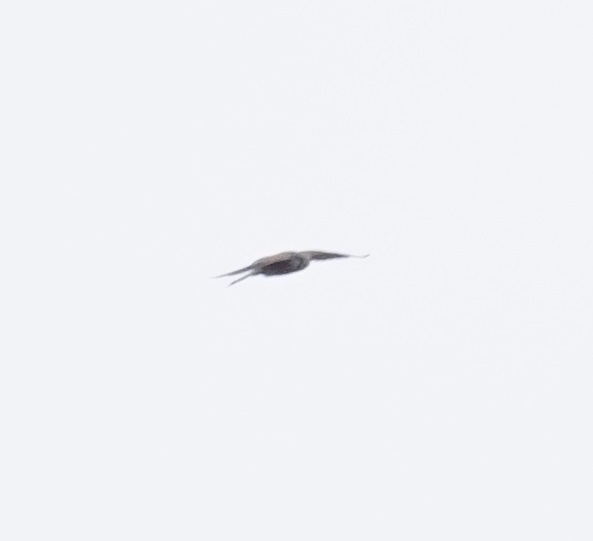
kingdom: Animalia
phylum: Chordata
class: Aves
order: Falconiformes
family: Falconidae
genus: Falco
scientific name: Falco tinnunculus
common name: Common kestrel
